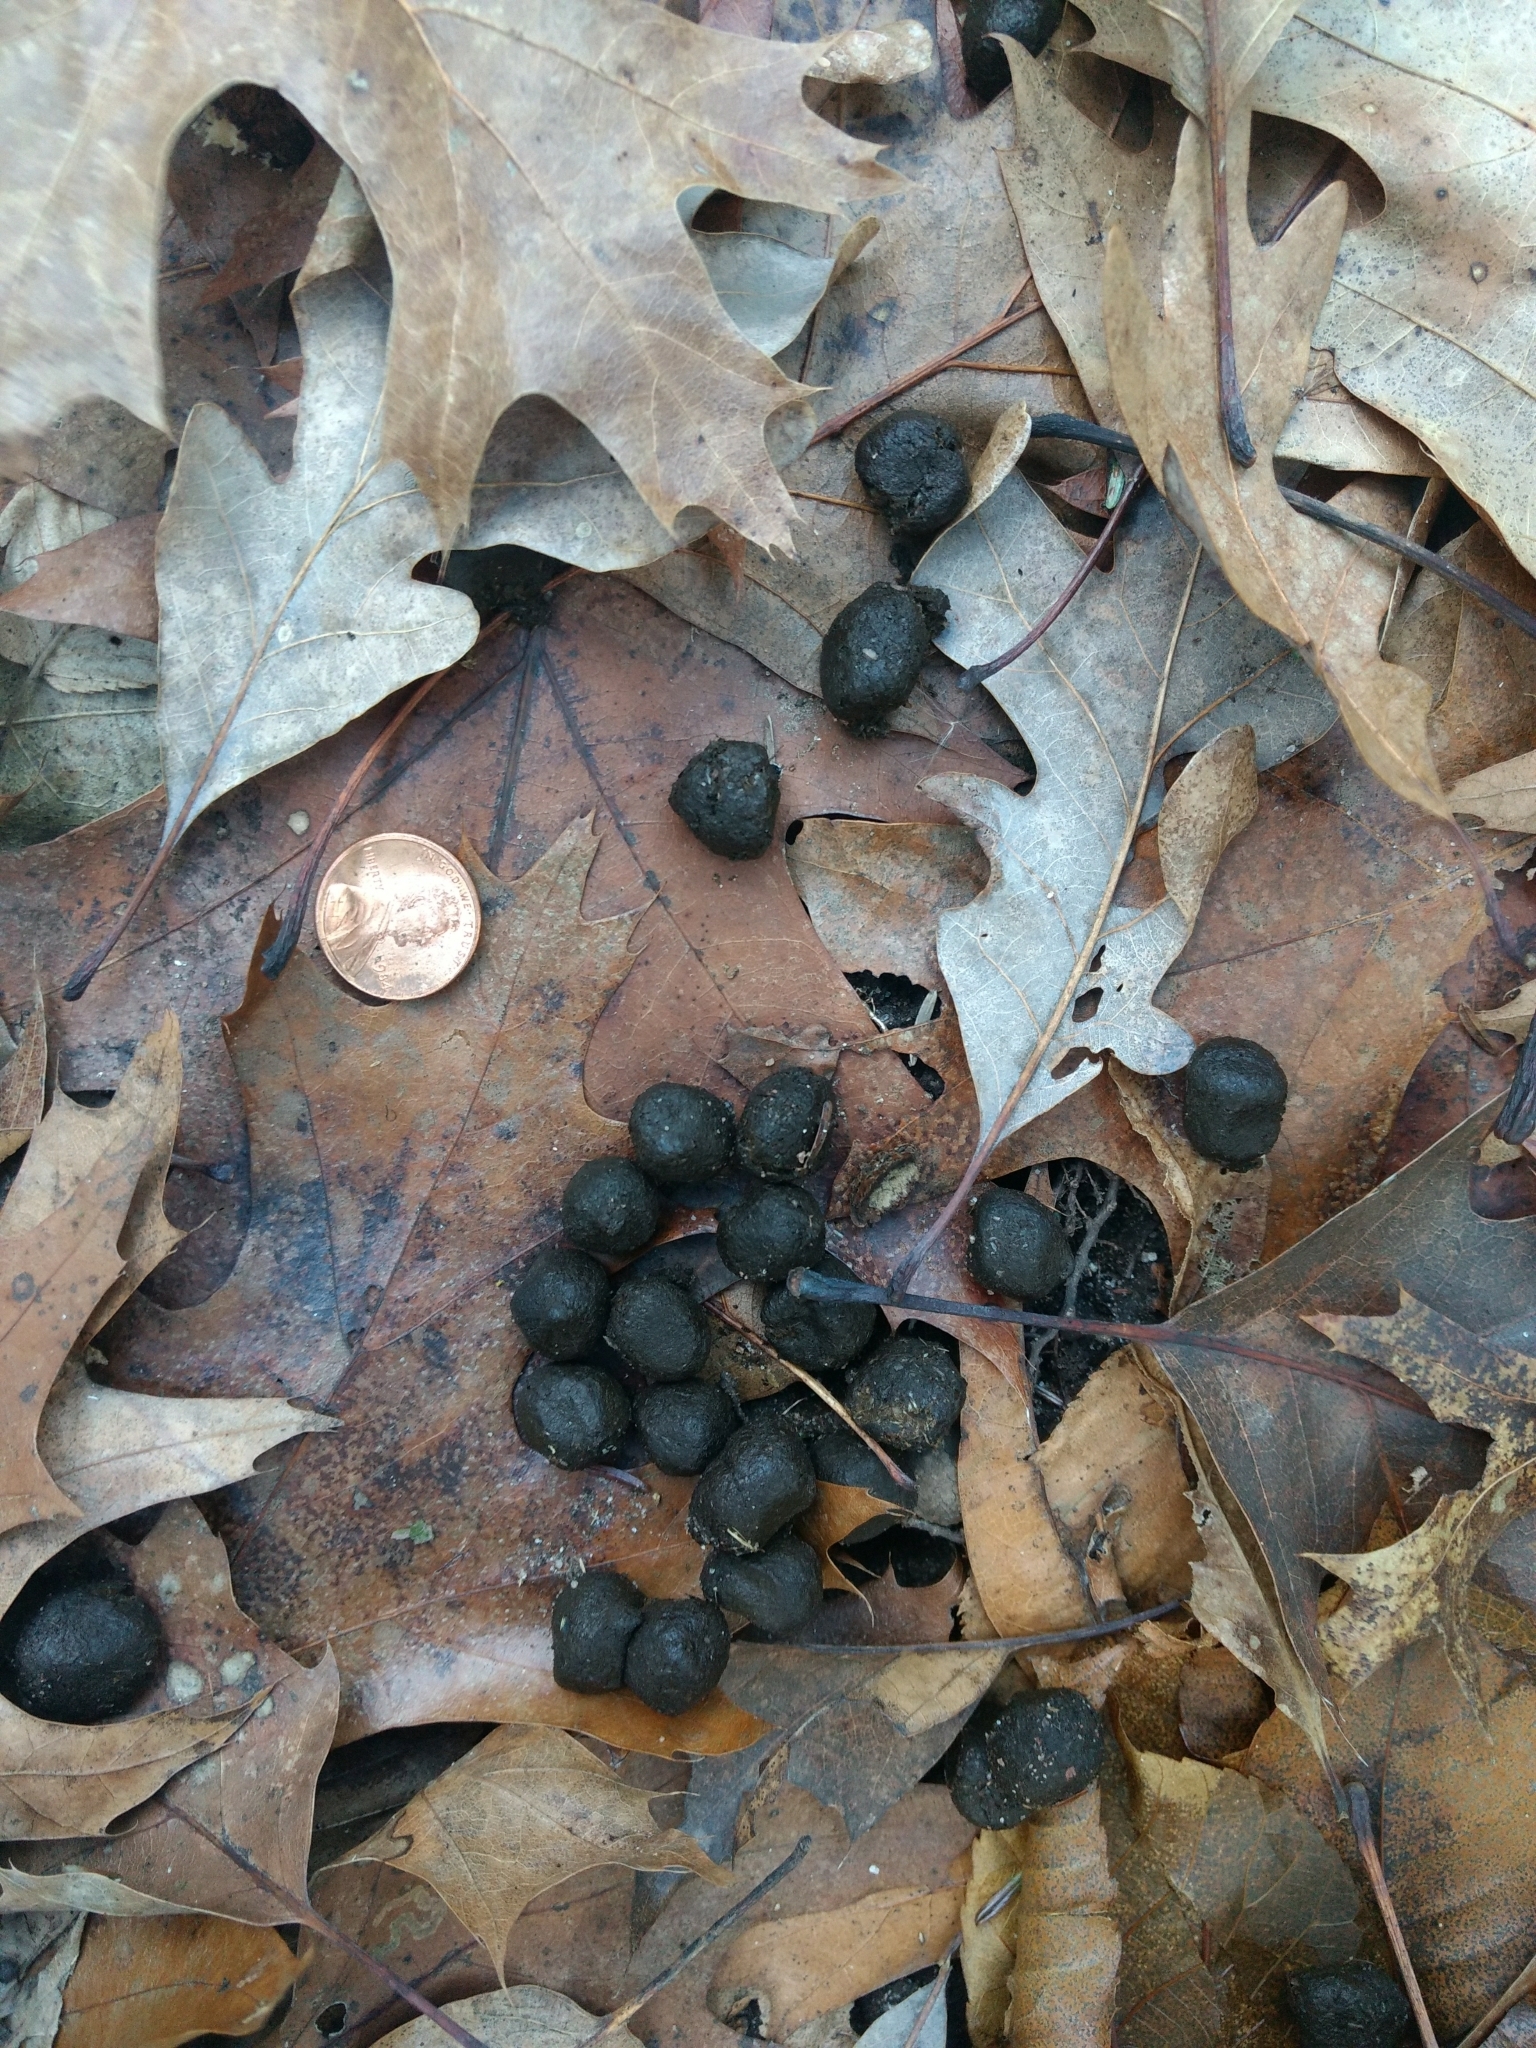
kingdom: Animalia
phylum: Chordata
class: Mammalia
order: Artiodactyla
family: Cervidae
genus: Odocoileus
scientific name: Odocoileus virginianus
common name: White-tailed deer
